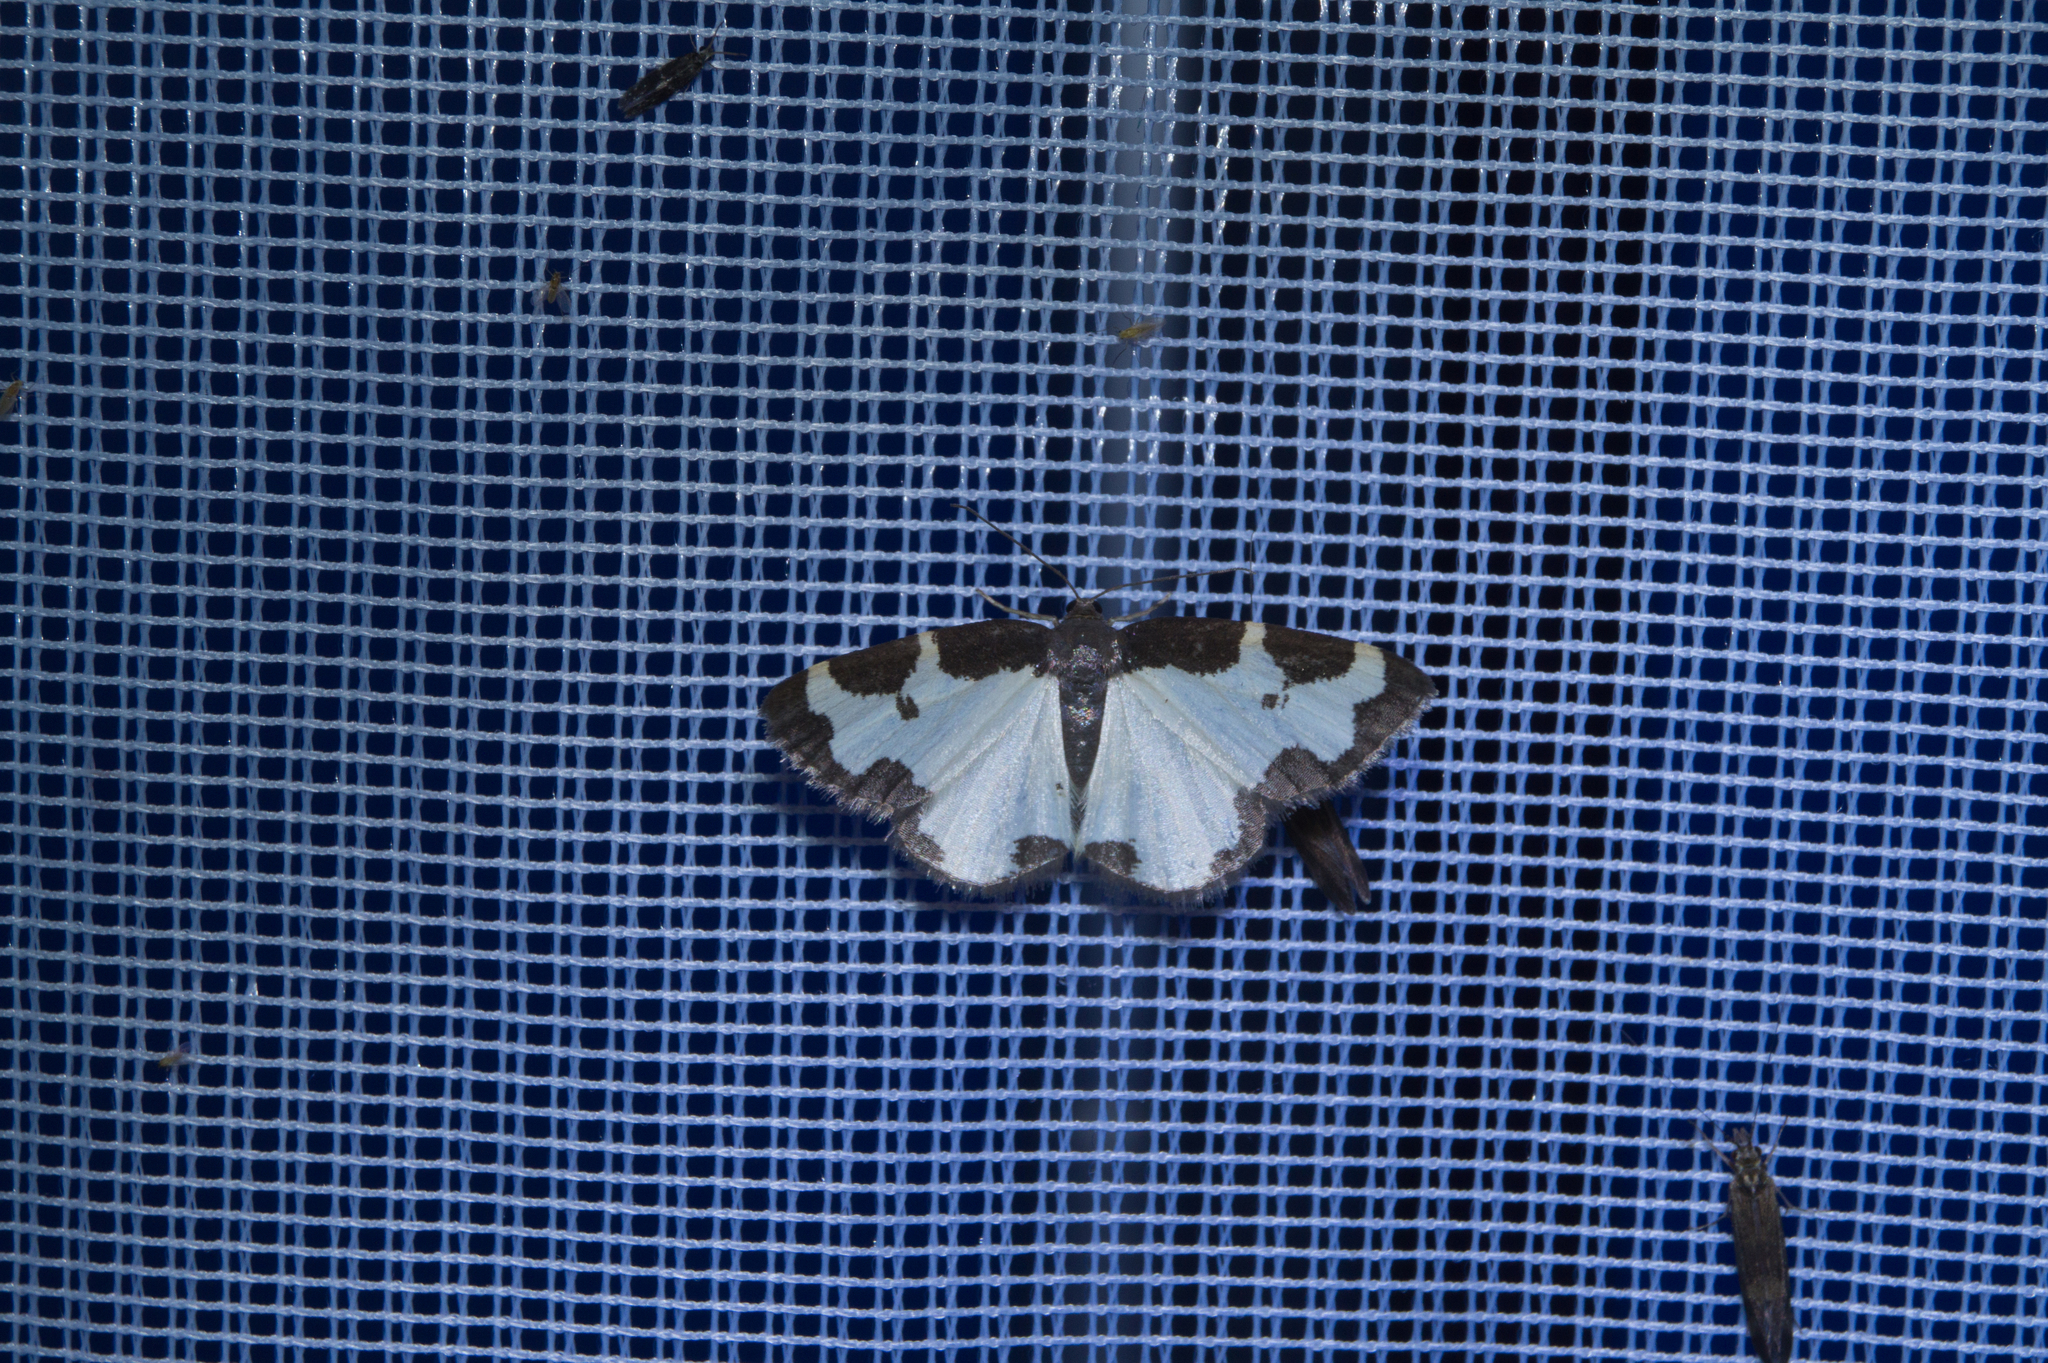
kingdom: Animalia
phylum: Arthropoda
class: Insecta
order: Lepidoptera
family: Geometridae
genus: Lomaspilis
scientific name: Lomaspilis marginata
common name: Clouded border
